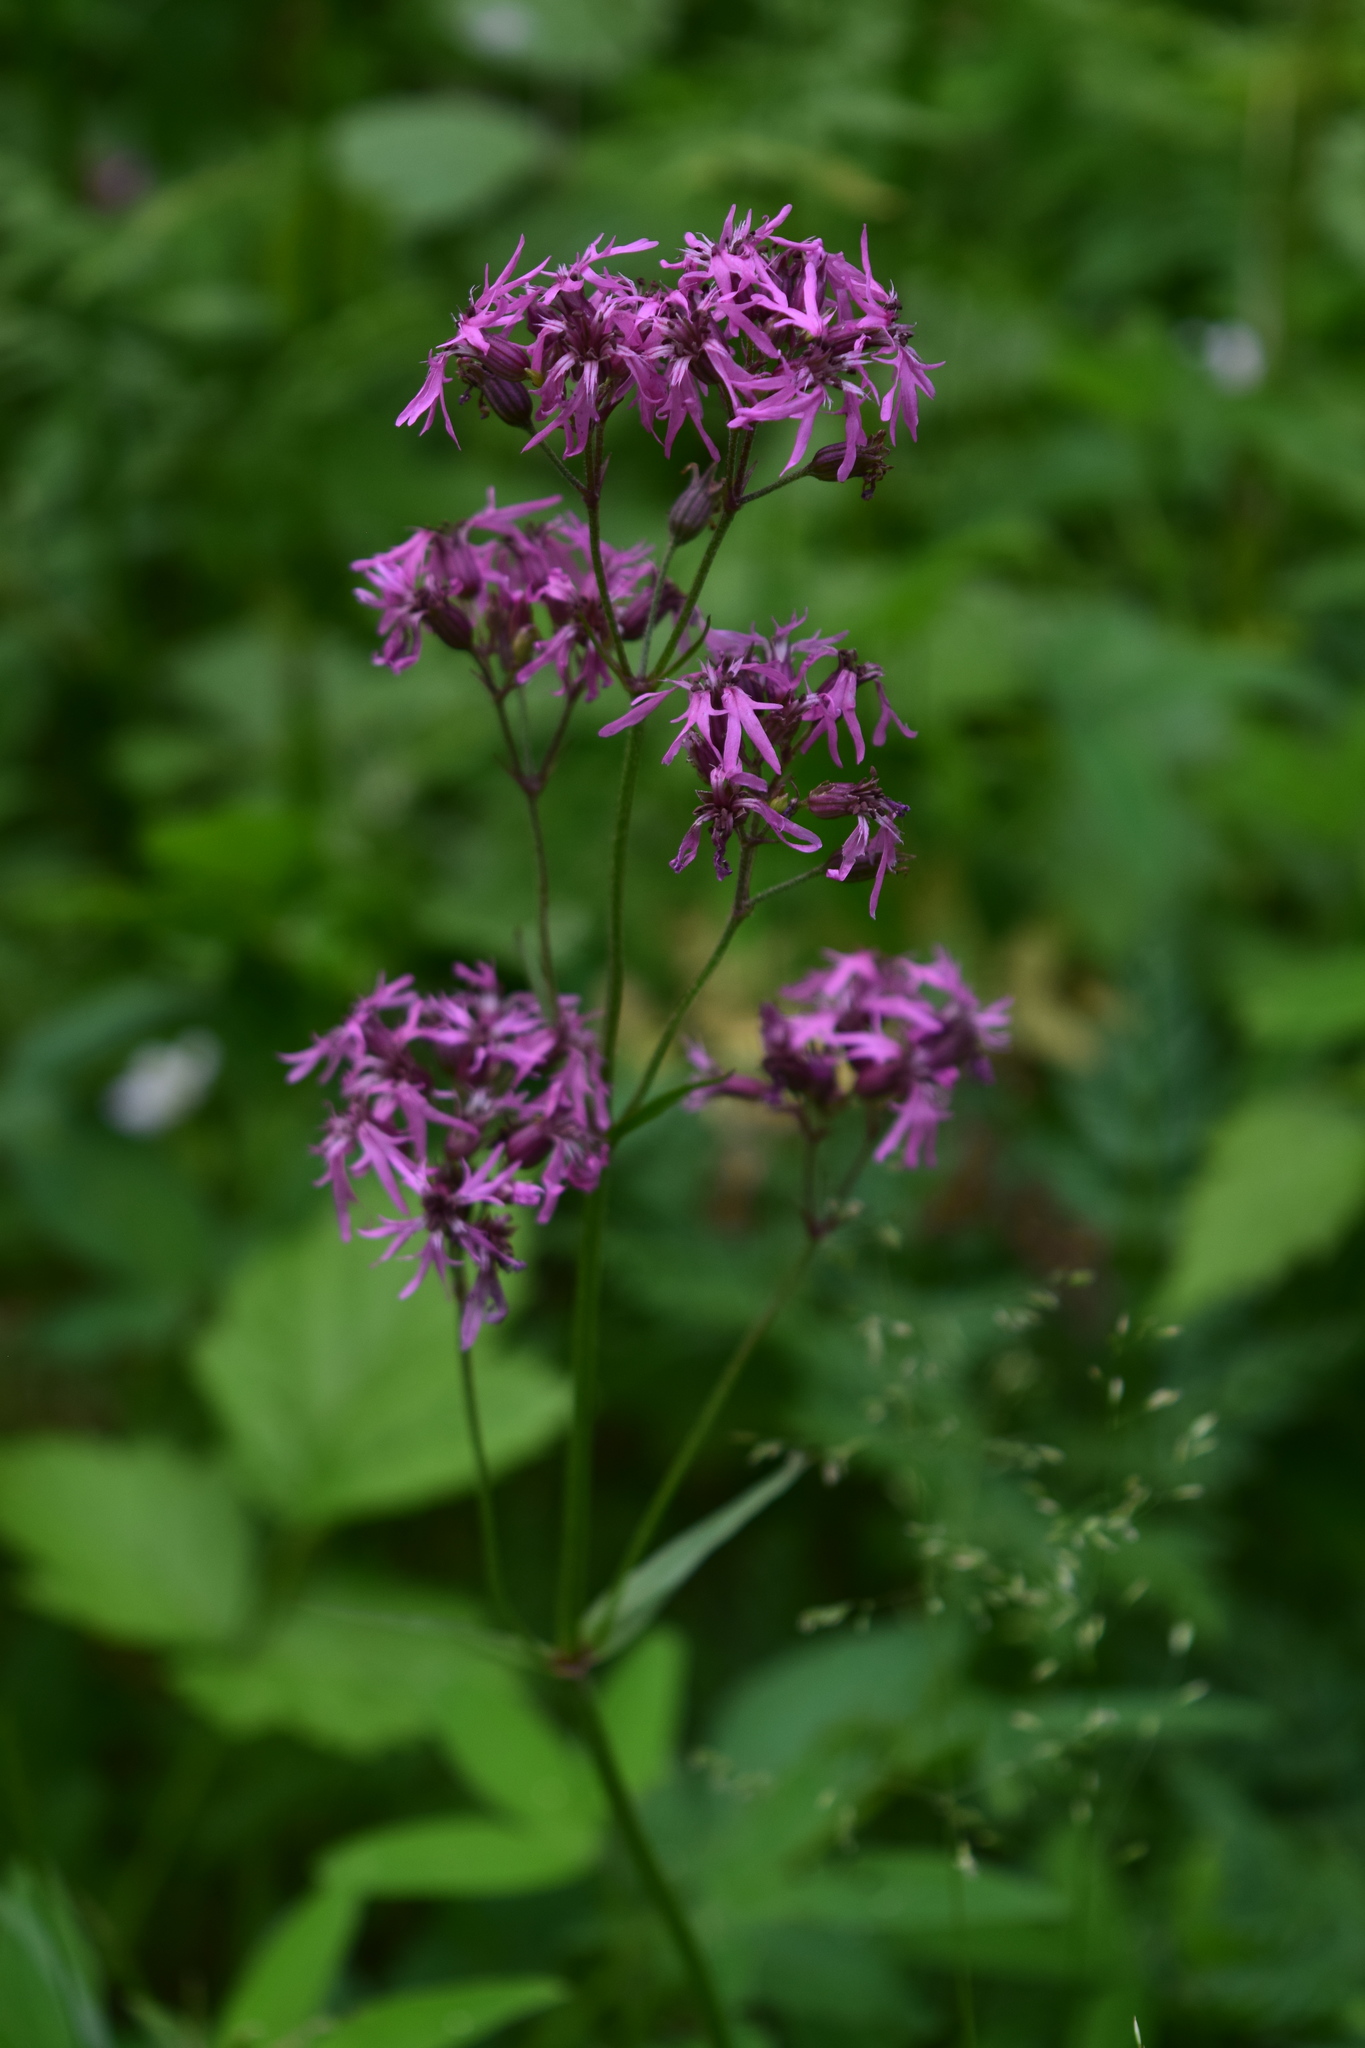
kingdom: Plantae
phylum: Tracheophyta
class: Magnoliopsida
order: Caryophyllales
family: Caryophyllaceae
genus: Silene
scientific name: Silene flos-cuculi
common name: Ragged-robin
